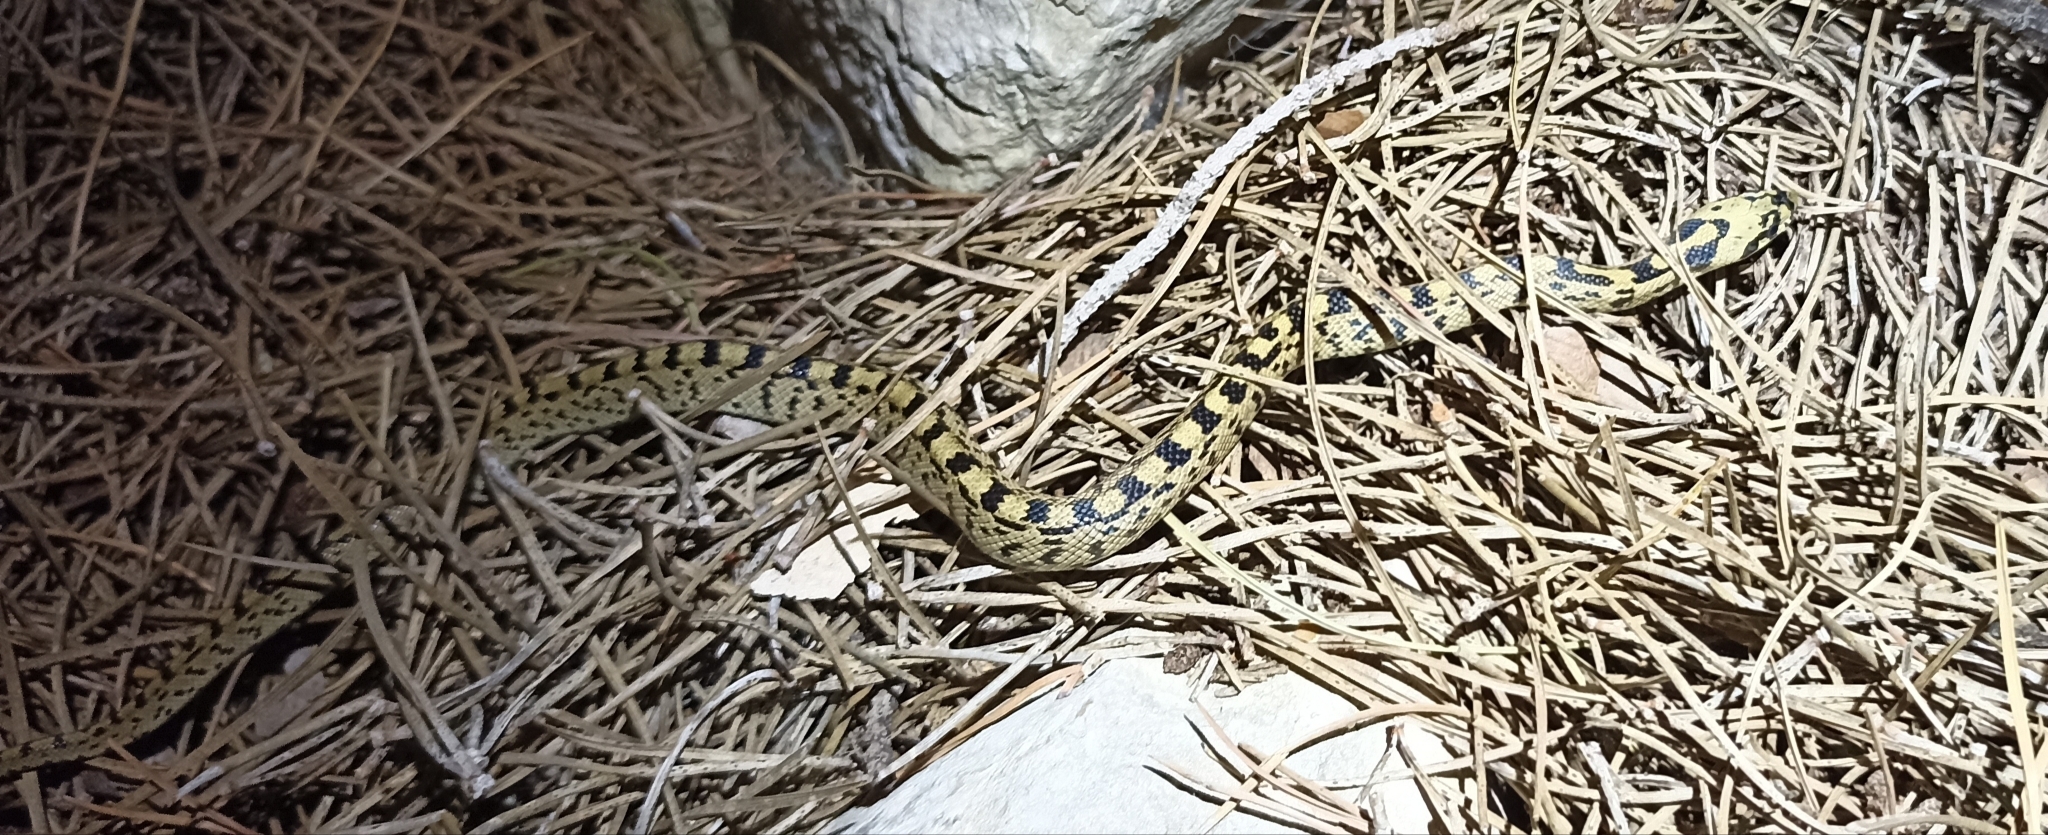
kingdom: Animalia
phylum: Chordata
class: Squamata
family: Colubridae
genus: Zamenis
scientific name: Zamenis scalaris
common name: Ladder snakes
